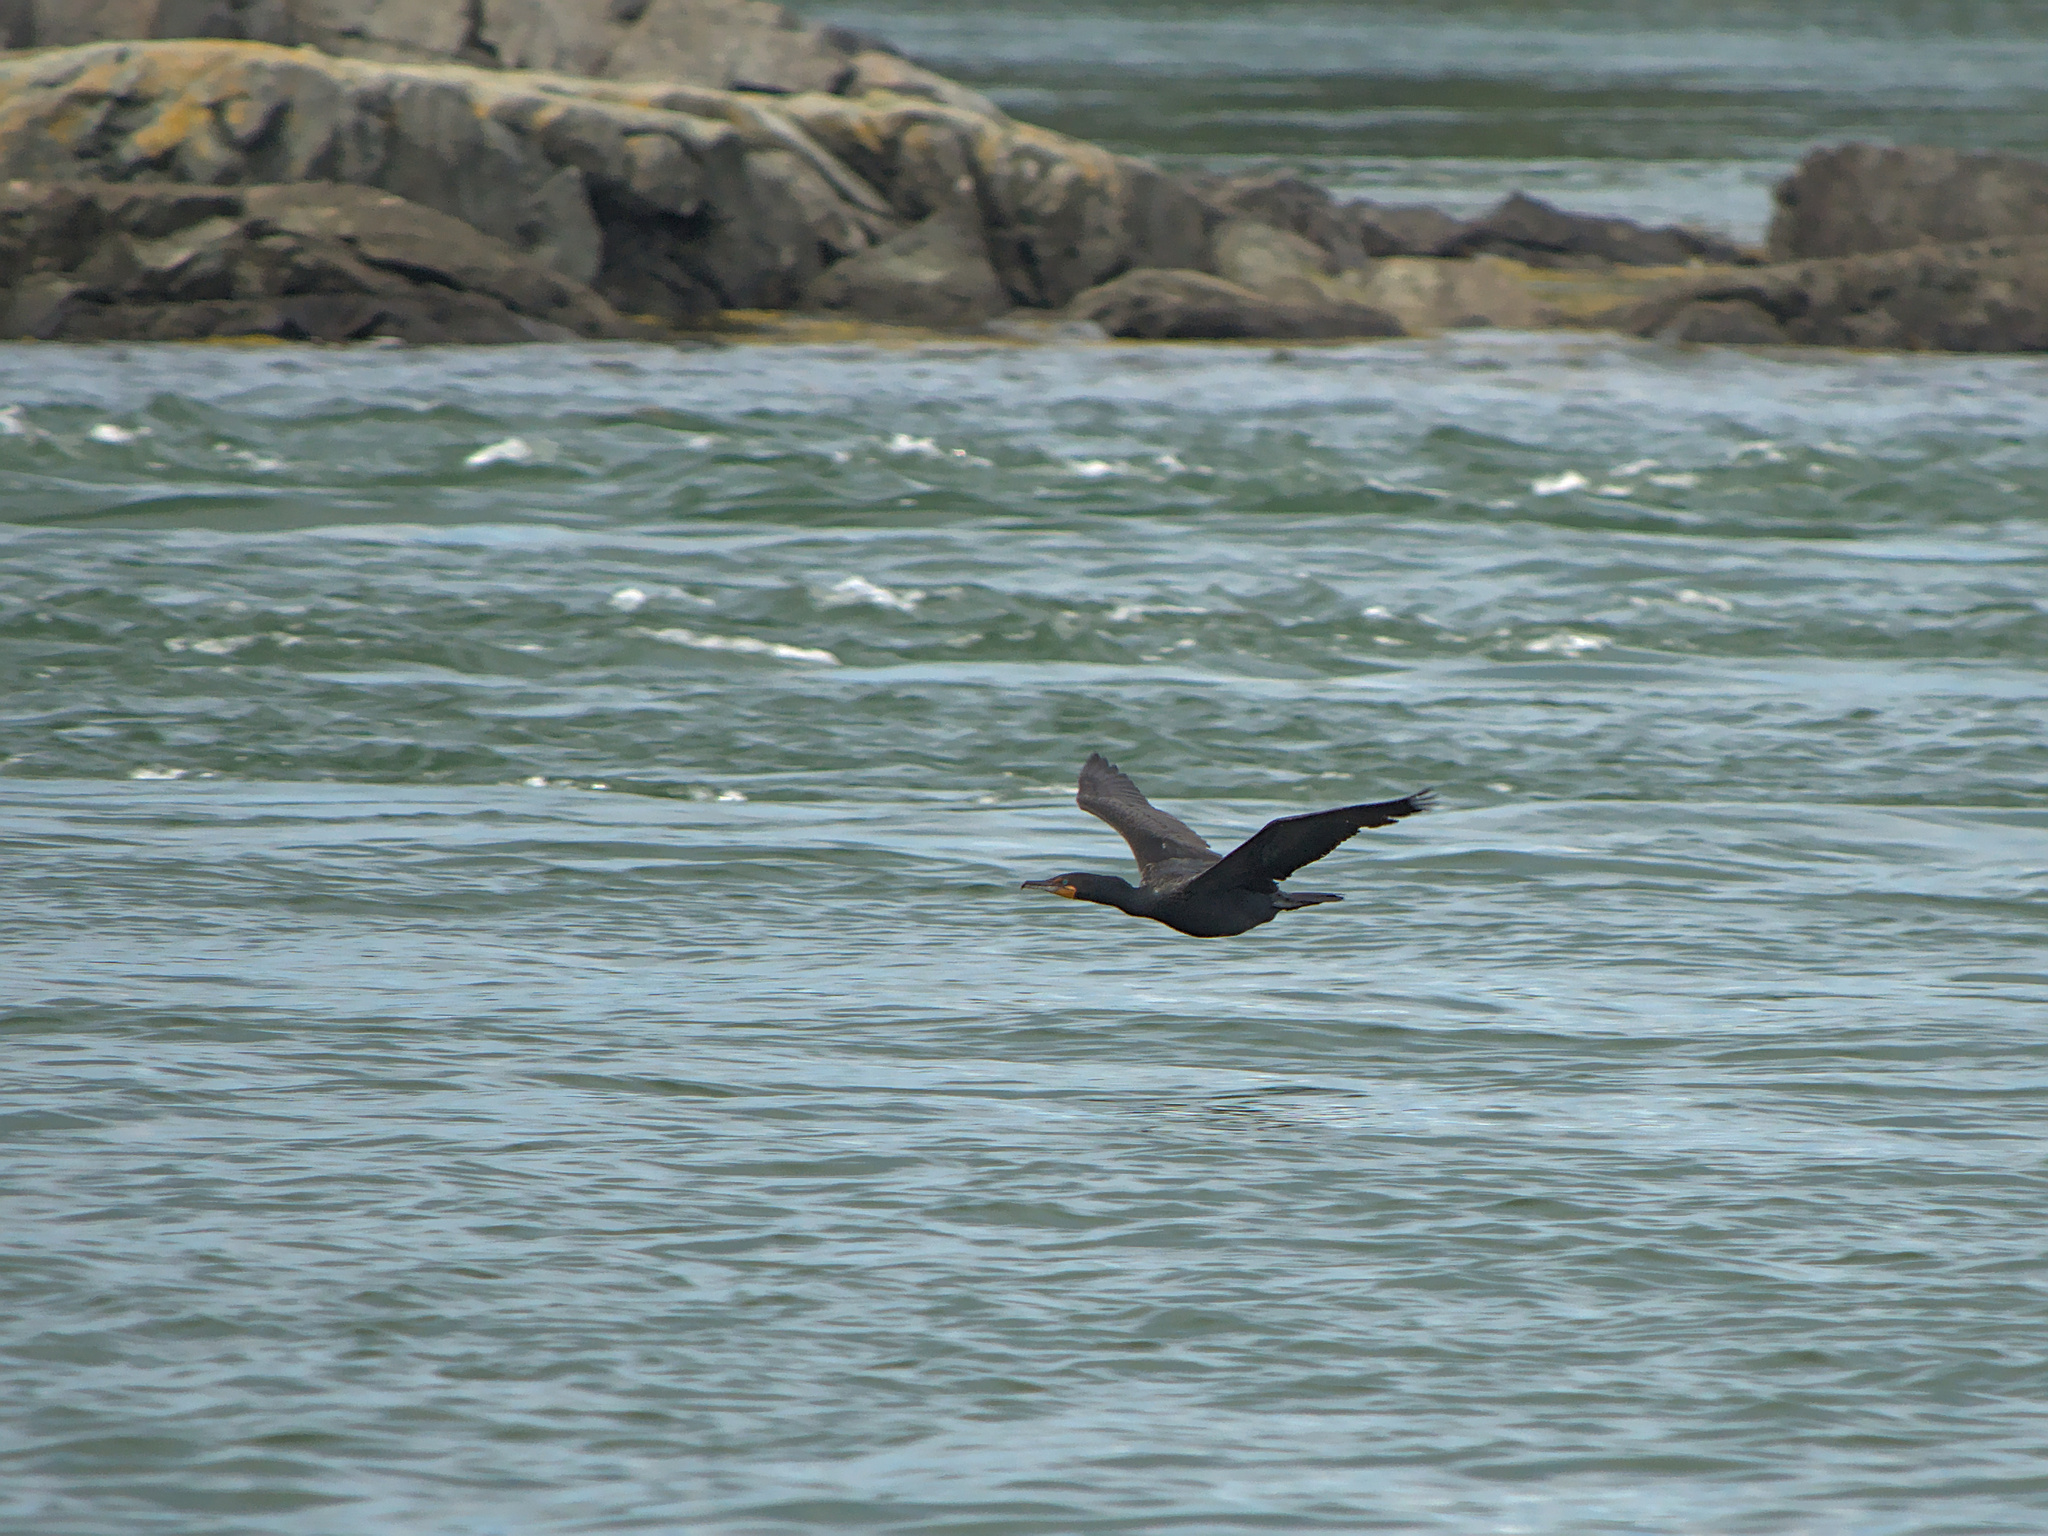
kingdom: Animalia
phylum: Chordata
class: Aves
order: Suliformes
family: Phalacrocoracidae
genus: Phalacrocorax
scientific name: Phalacrocorax auritus
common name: Double-crested cormorant
